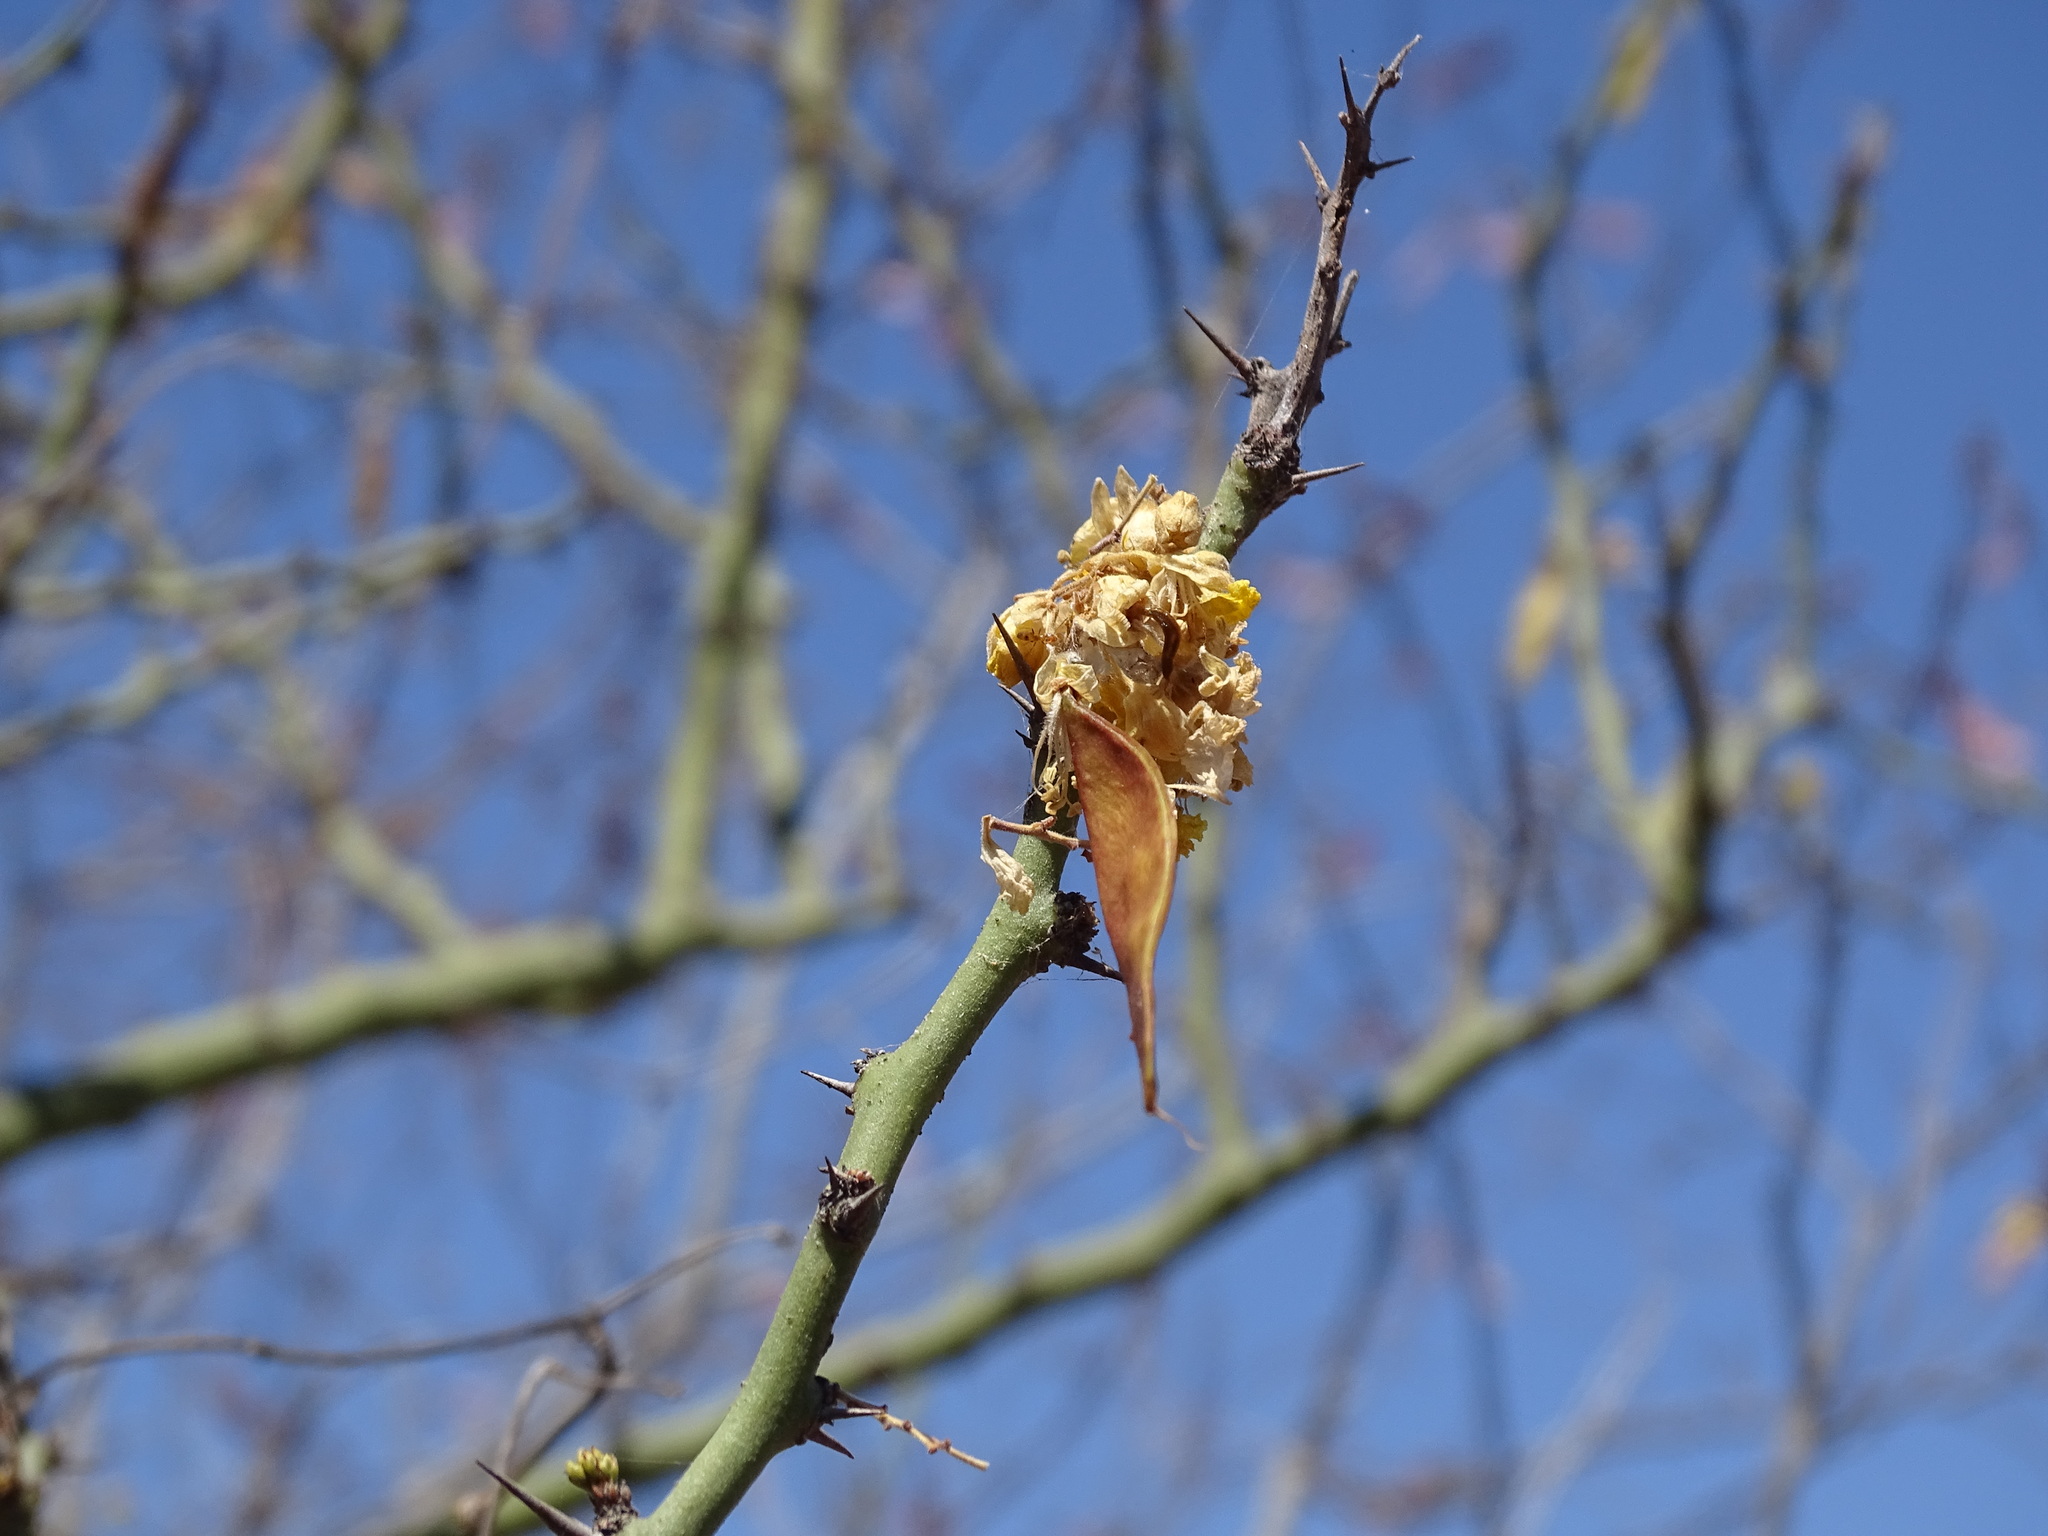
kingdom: Plantae
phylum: Tracheophyta
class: Magnoliopsida
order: Fabales
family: Fabaceae
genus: Parkinsonia
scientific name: Parkinsonia praecox
